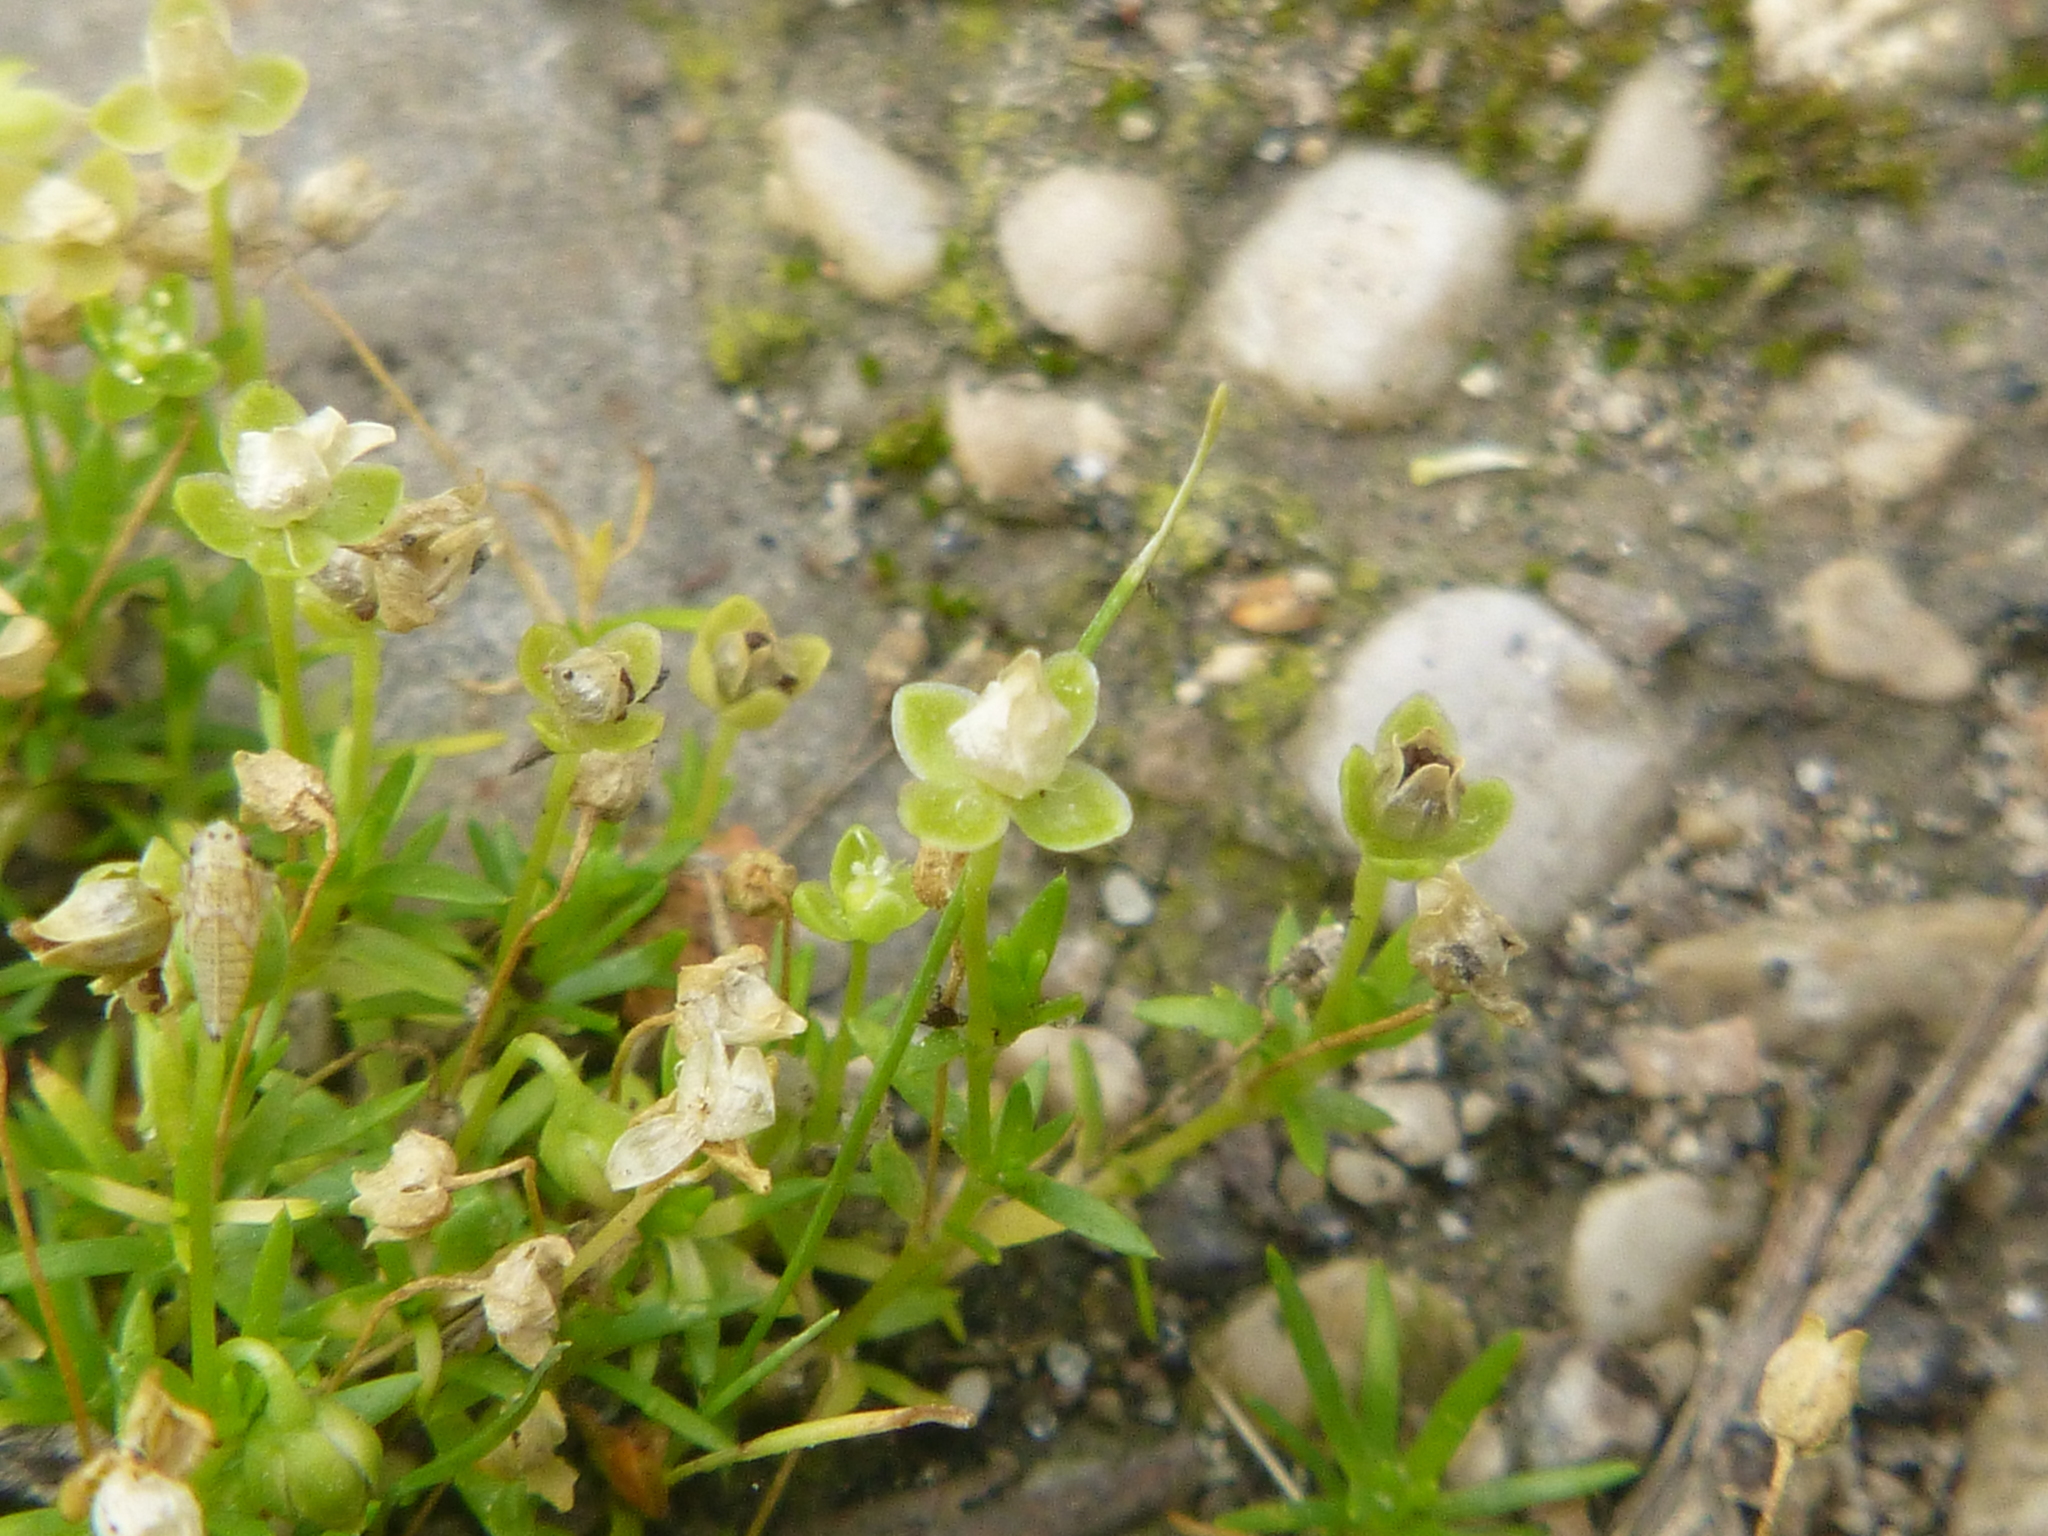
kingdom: Plantae
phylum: Tracheophyta
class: Magnoliopsida
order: Caryophyllales
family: Caryophyllaceae
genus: Sagina
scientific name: Sagina procumbens
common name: Procumbent pearlwort
